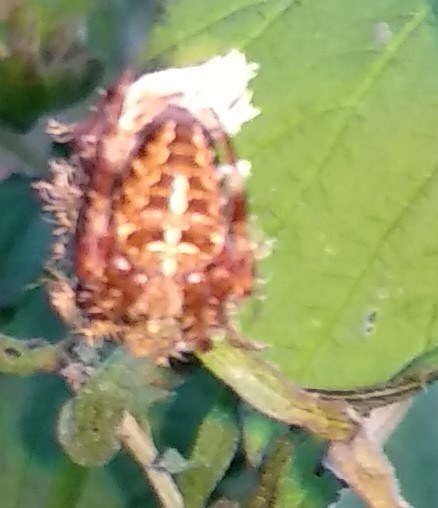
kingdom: Animalia
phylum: Arthropoda
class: Arachnida
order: Araneae
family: Araneidae
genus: Araneus
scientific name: Araneus diadematus
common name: Cross orbweaver
